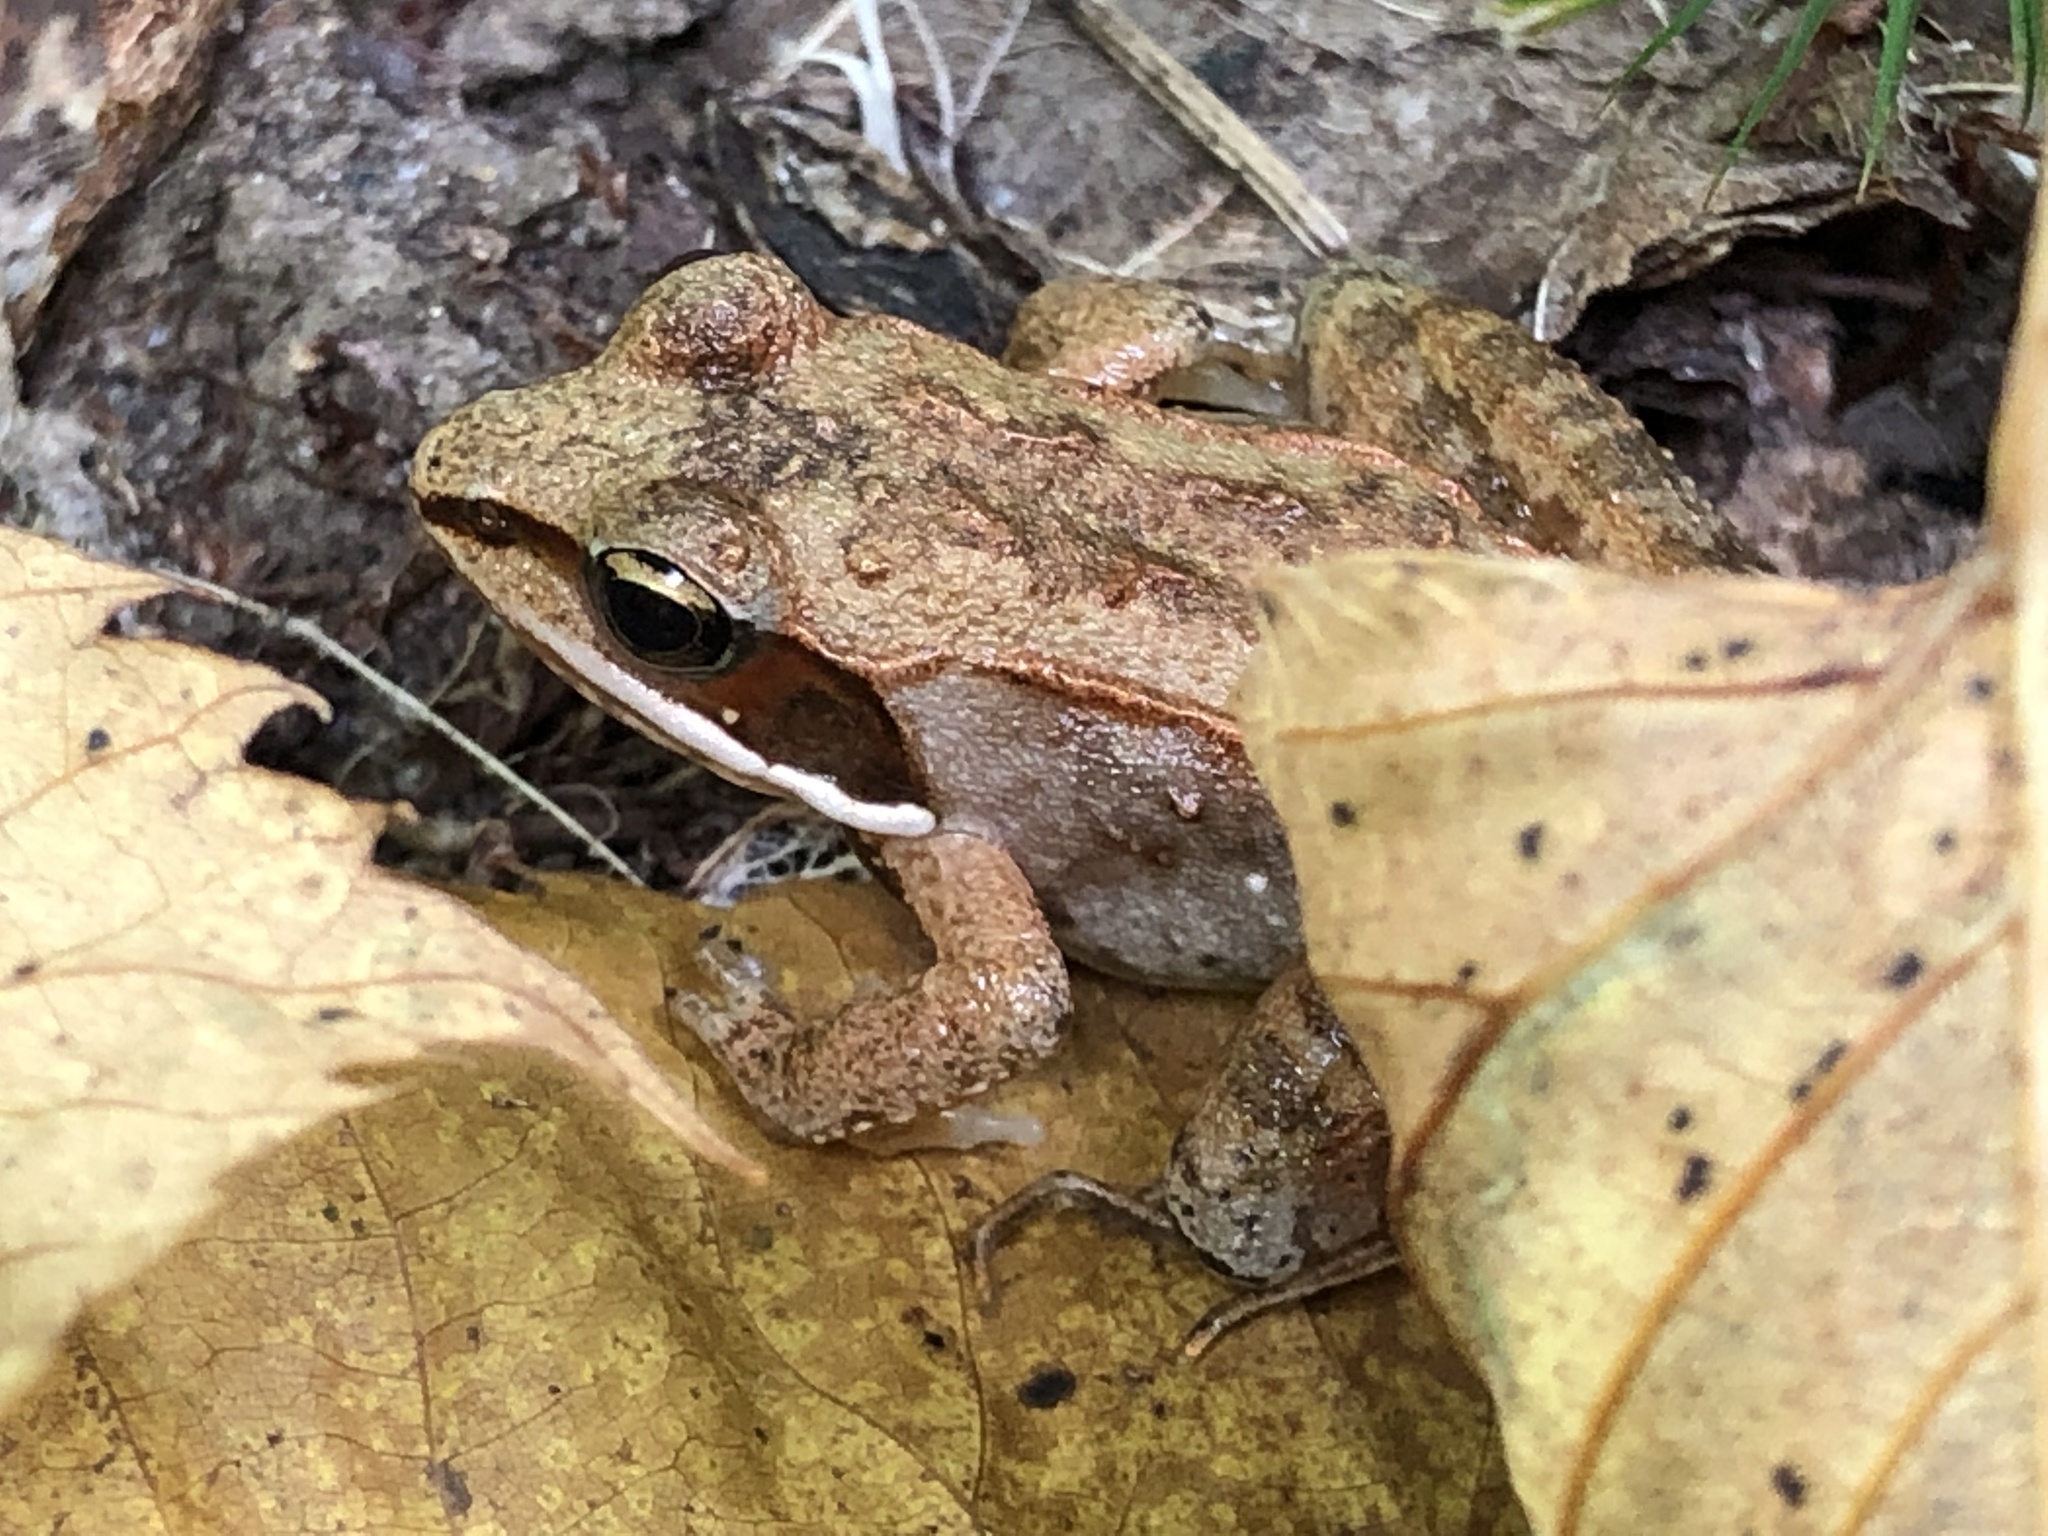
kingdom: Animalia
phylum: Chordata
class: Amphibia
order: Anura
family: Ranidae
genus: Lithobates
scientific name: Lithobates sylvaticus
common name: Wood frog
